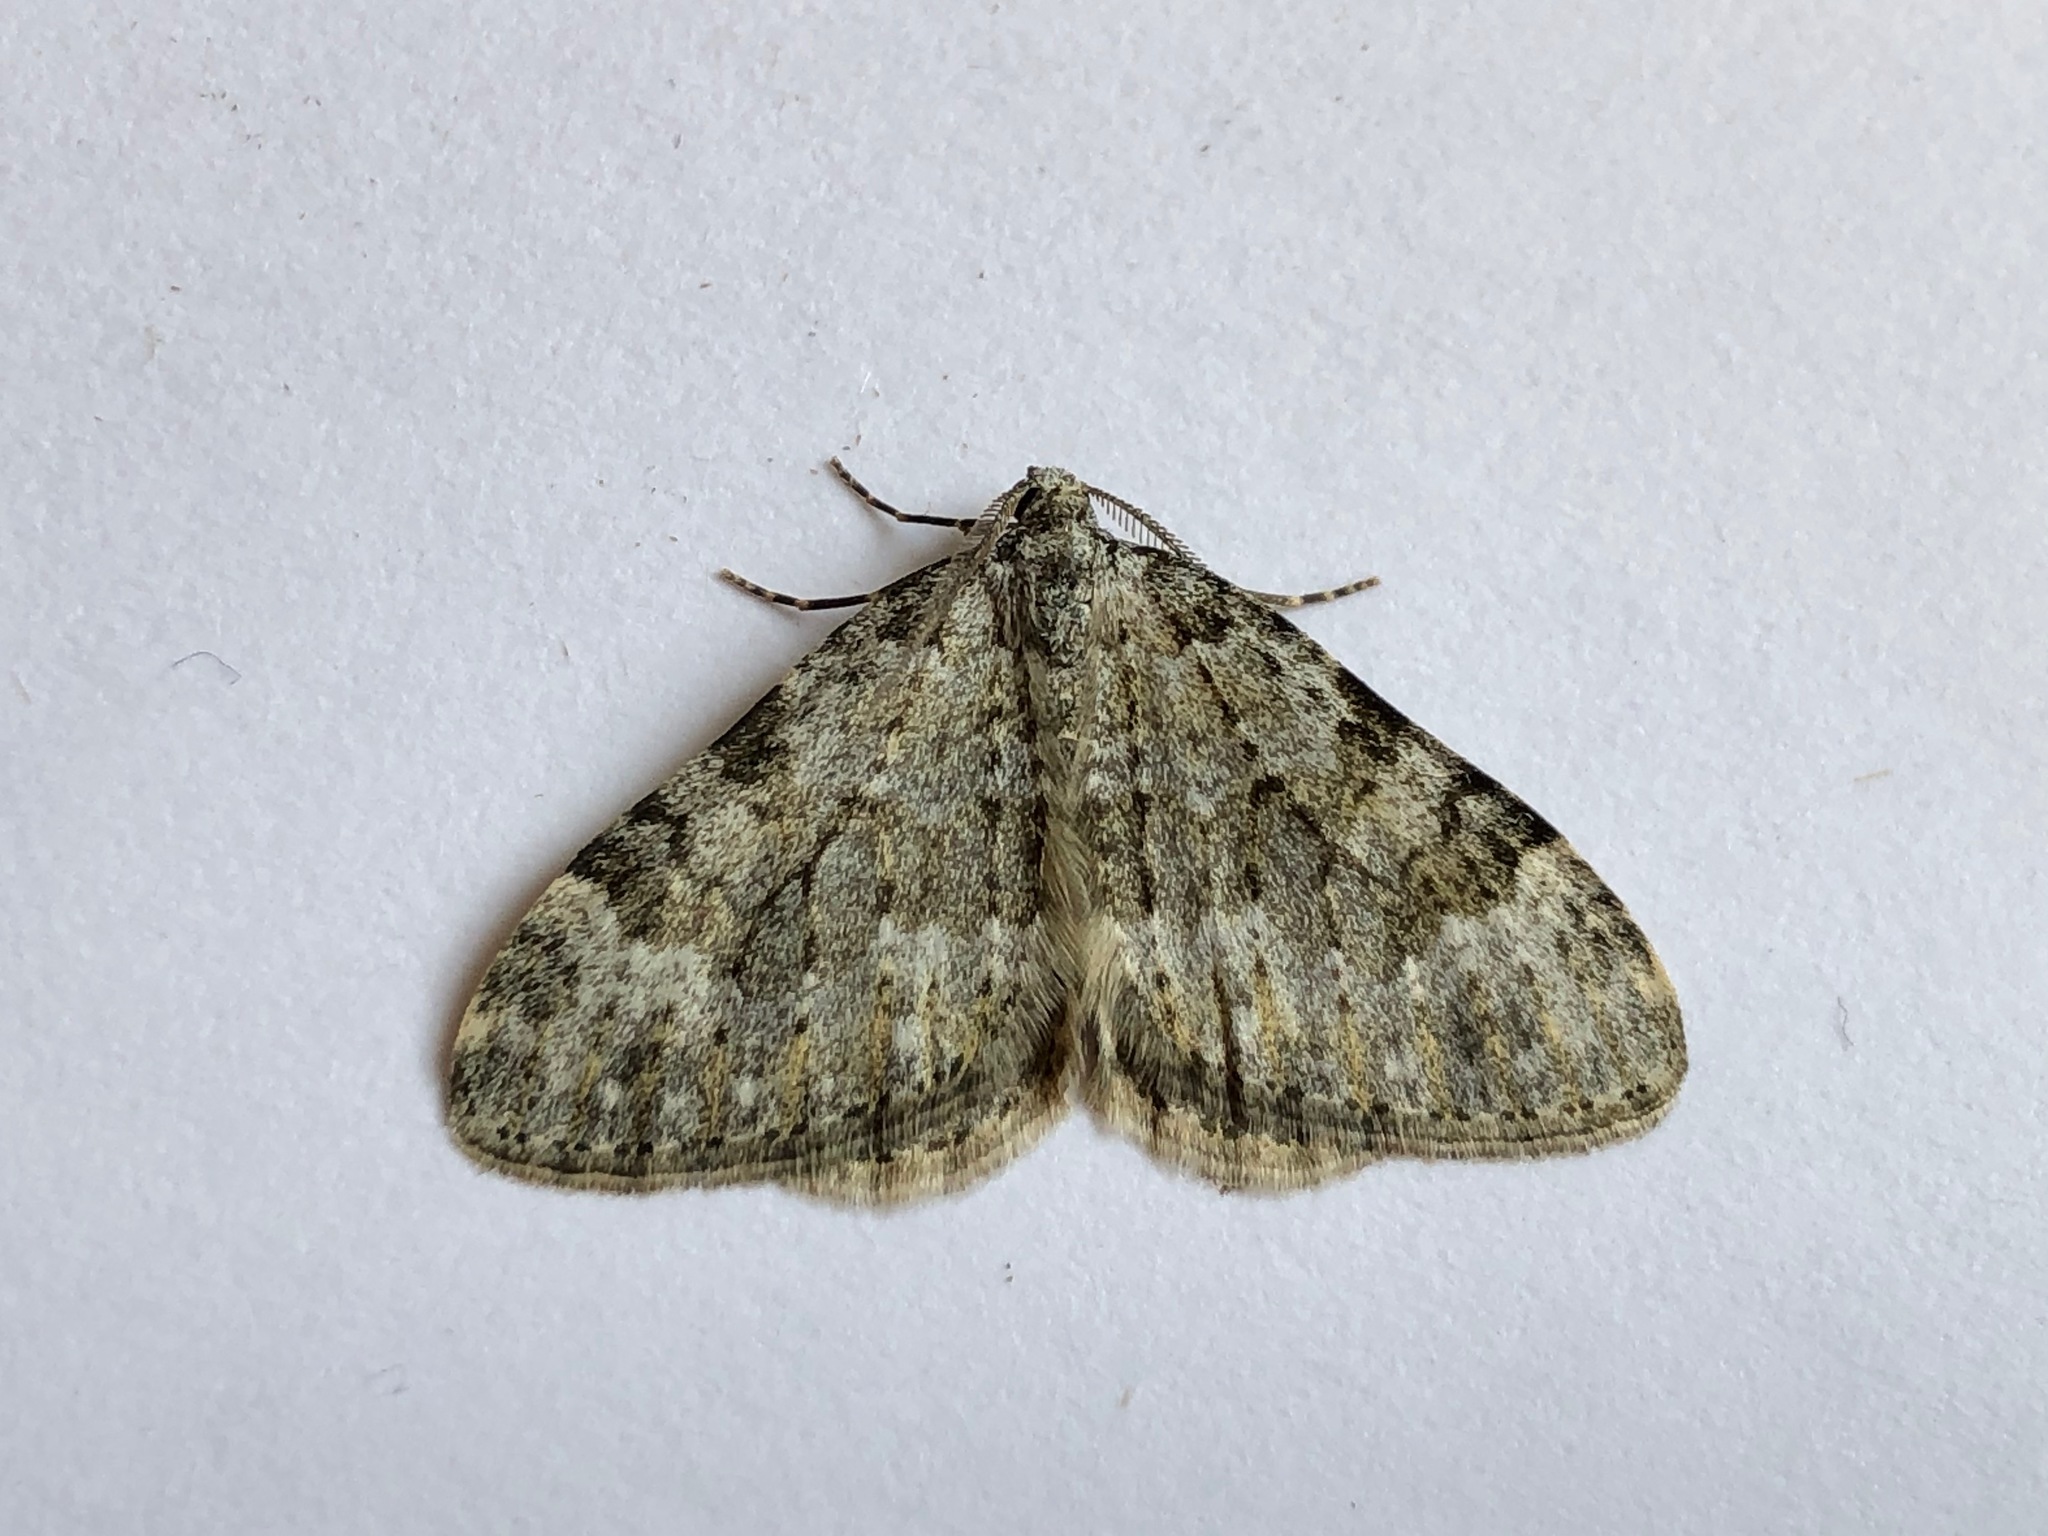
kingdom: Animalia
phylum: Arthropoda
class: Insecta
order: Lepidoptera
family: Geometridae
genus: Nebula
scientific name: Nebula salicata
